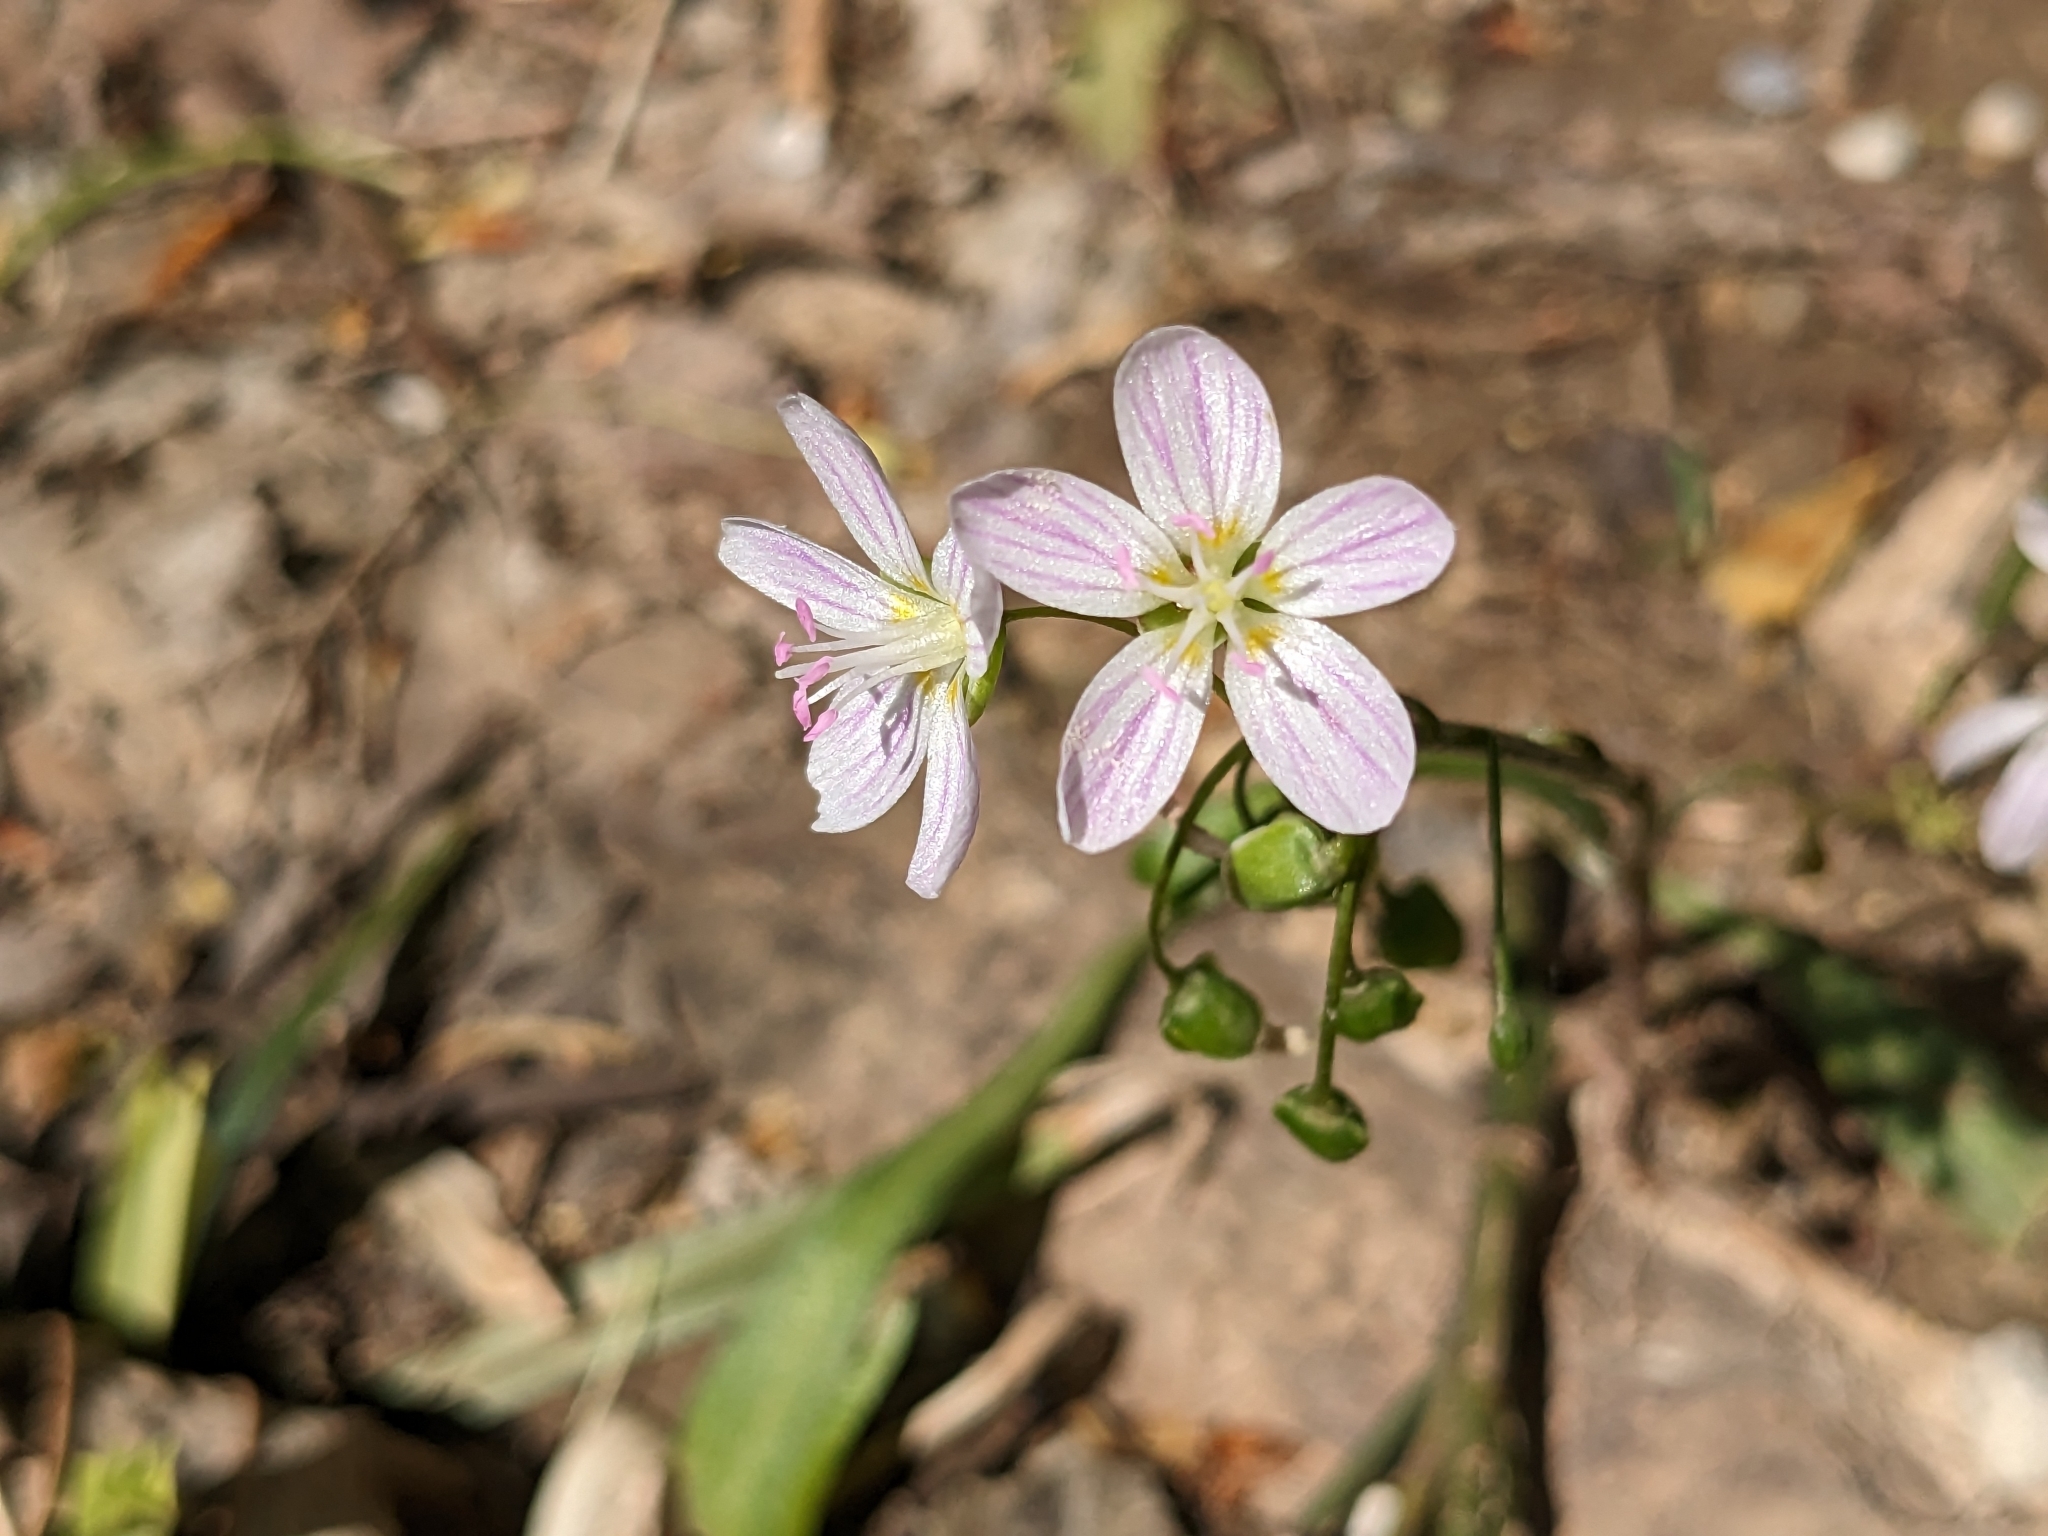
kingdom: Plantae
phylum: Tracheophyta
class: Magnoliopsida
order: Caryophyllales
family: Montiaceae
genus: Claytonia
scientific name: Claytonia virginica
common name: Virginia springbeauty
